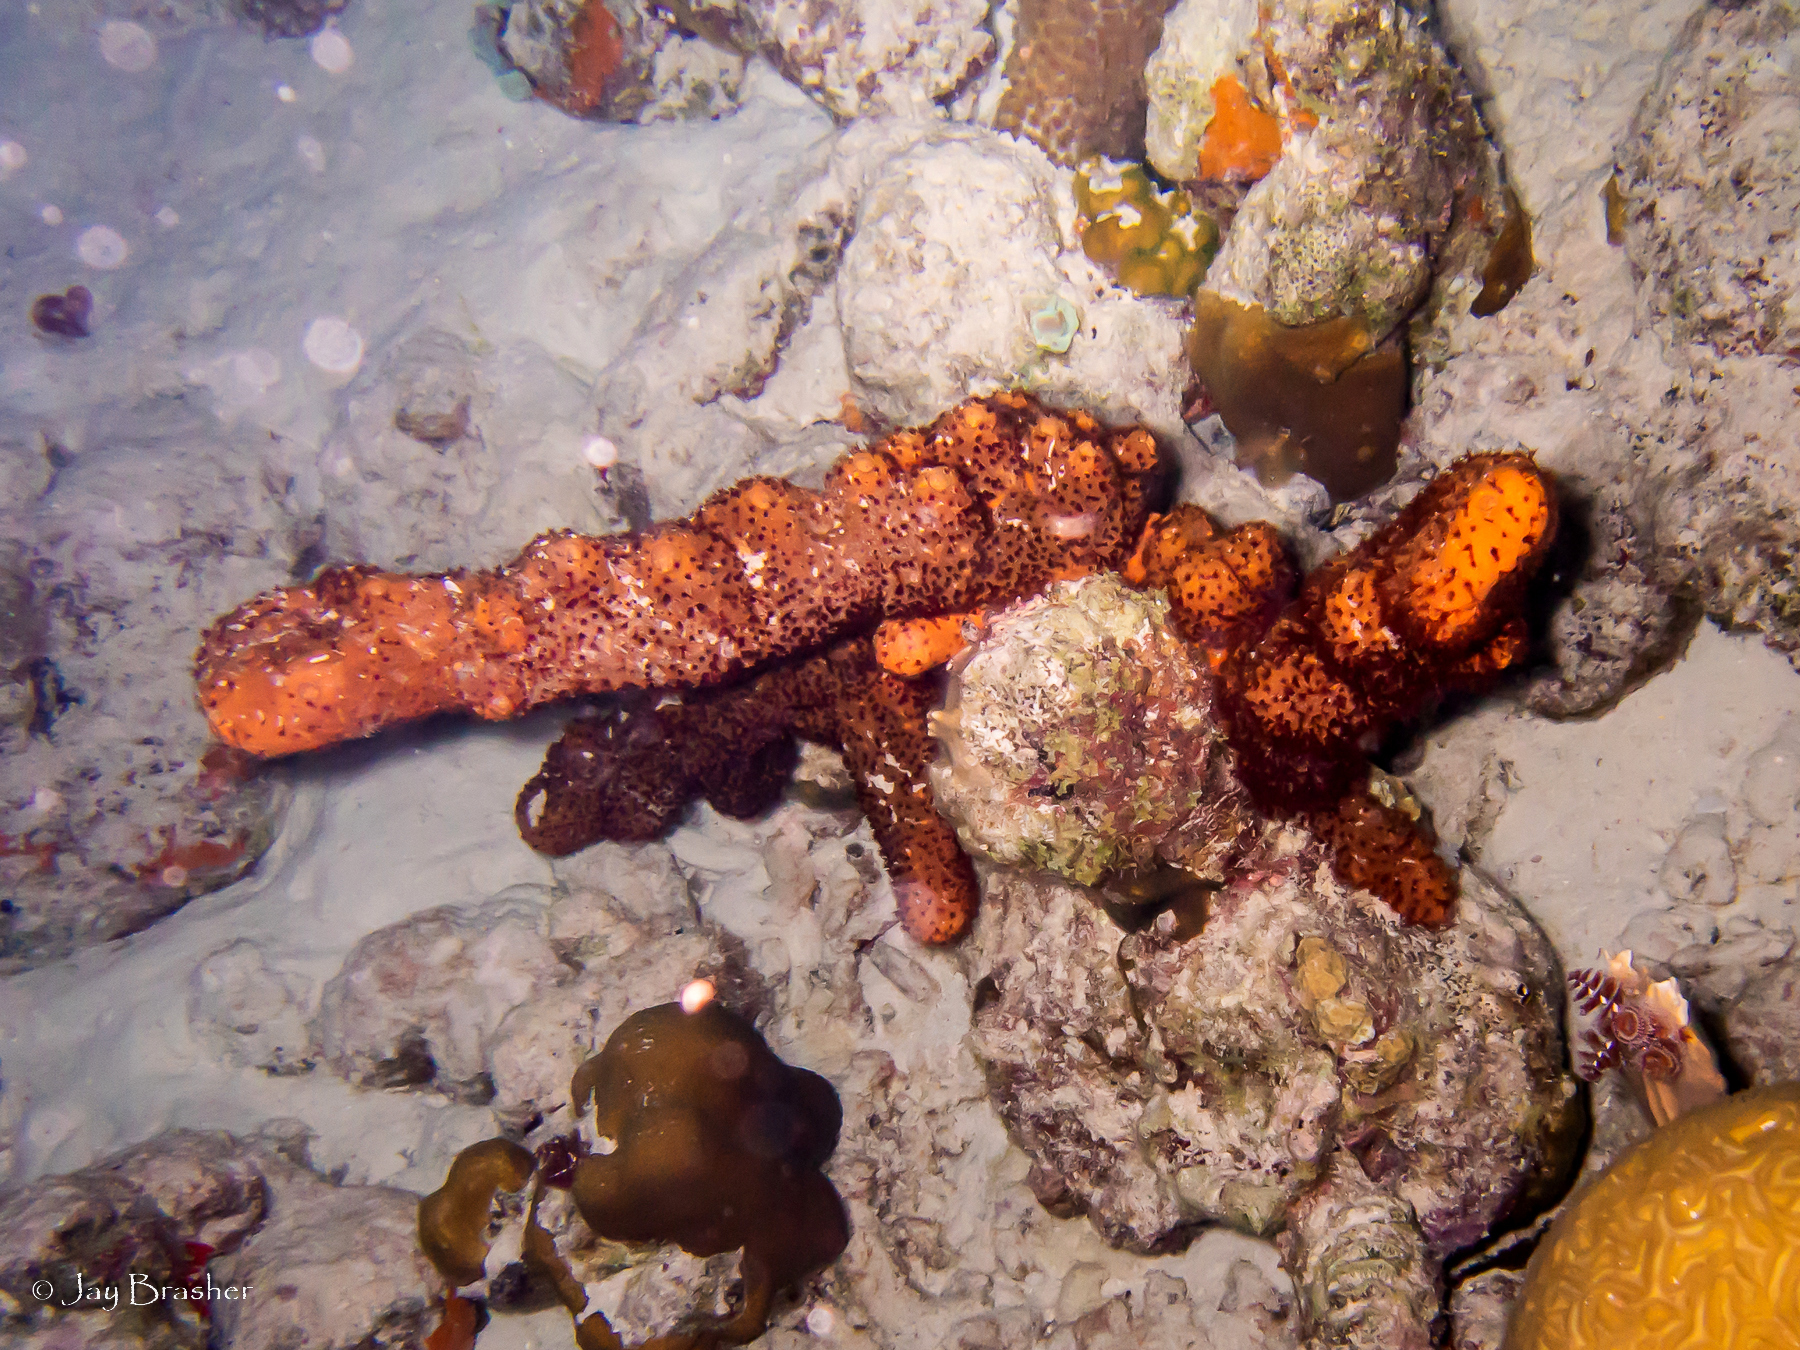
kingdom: Animalia
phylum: Cnidaria
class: Anthozoa
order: Zoantharia
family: Parazoanthidae
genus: Bergia
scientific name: Bergia puertoricense
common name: Maroon sponge zoanthid
